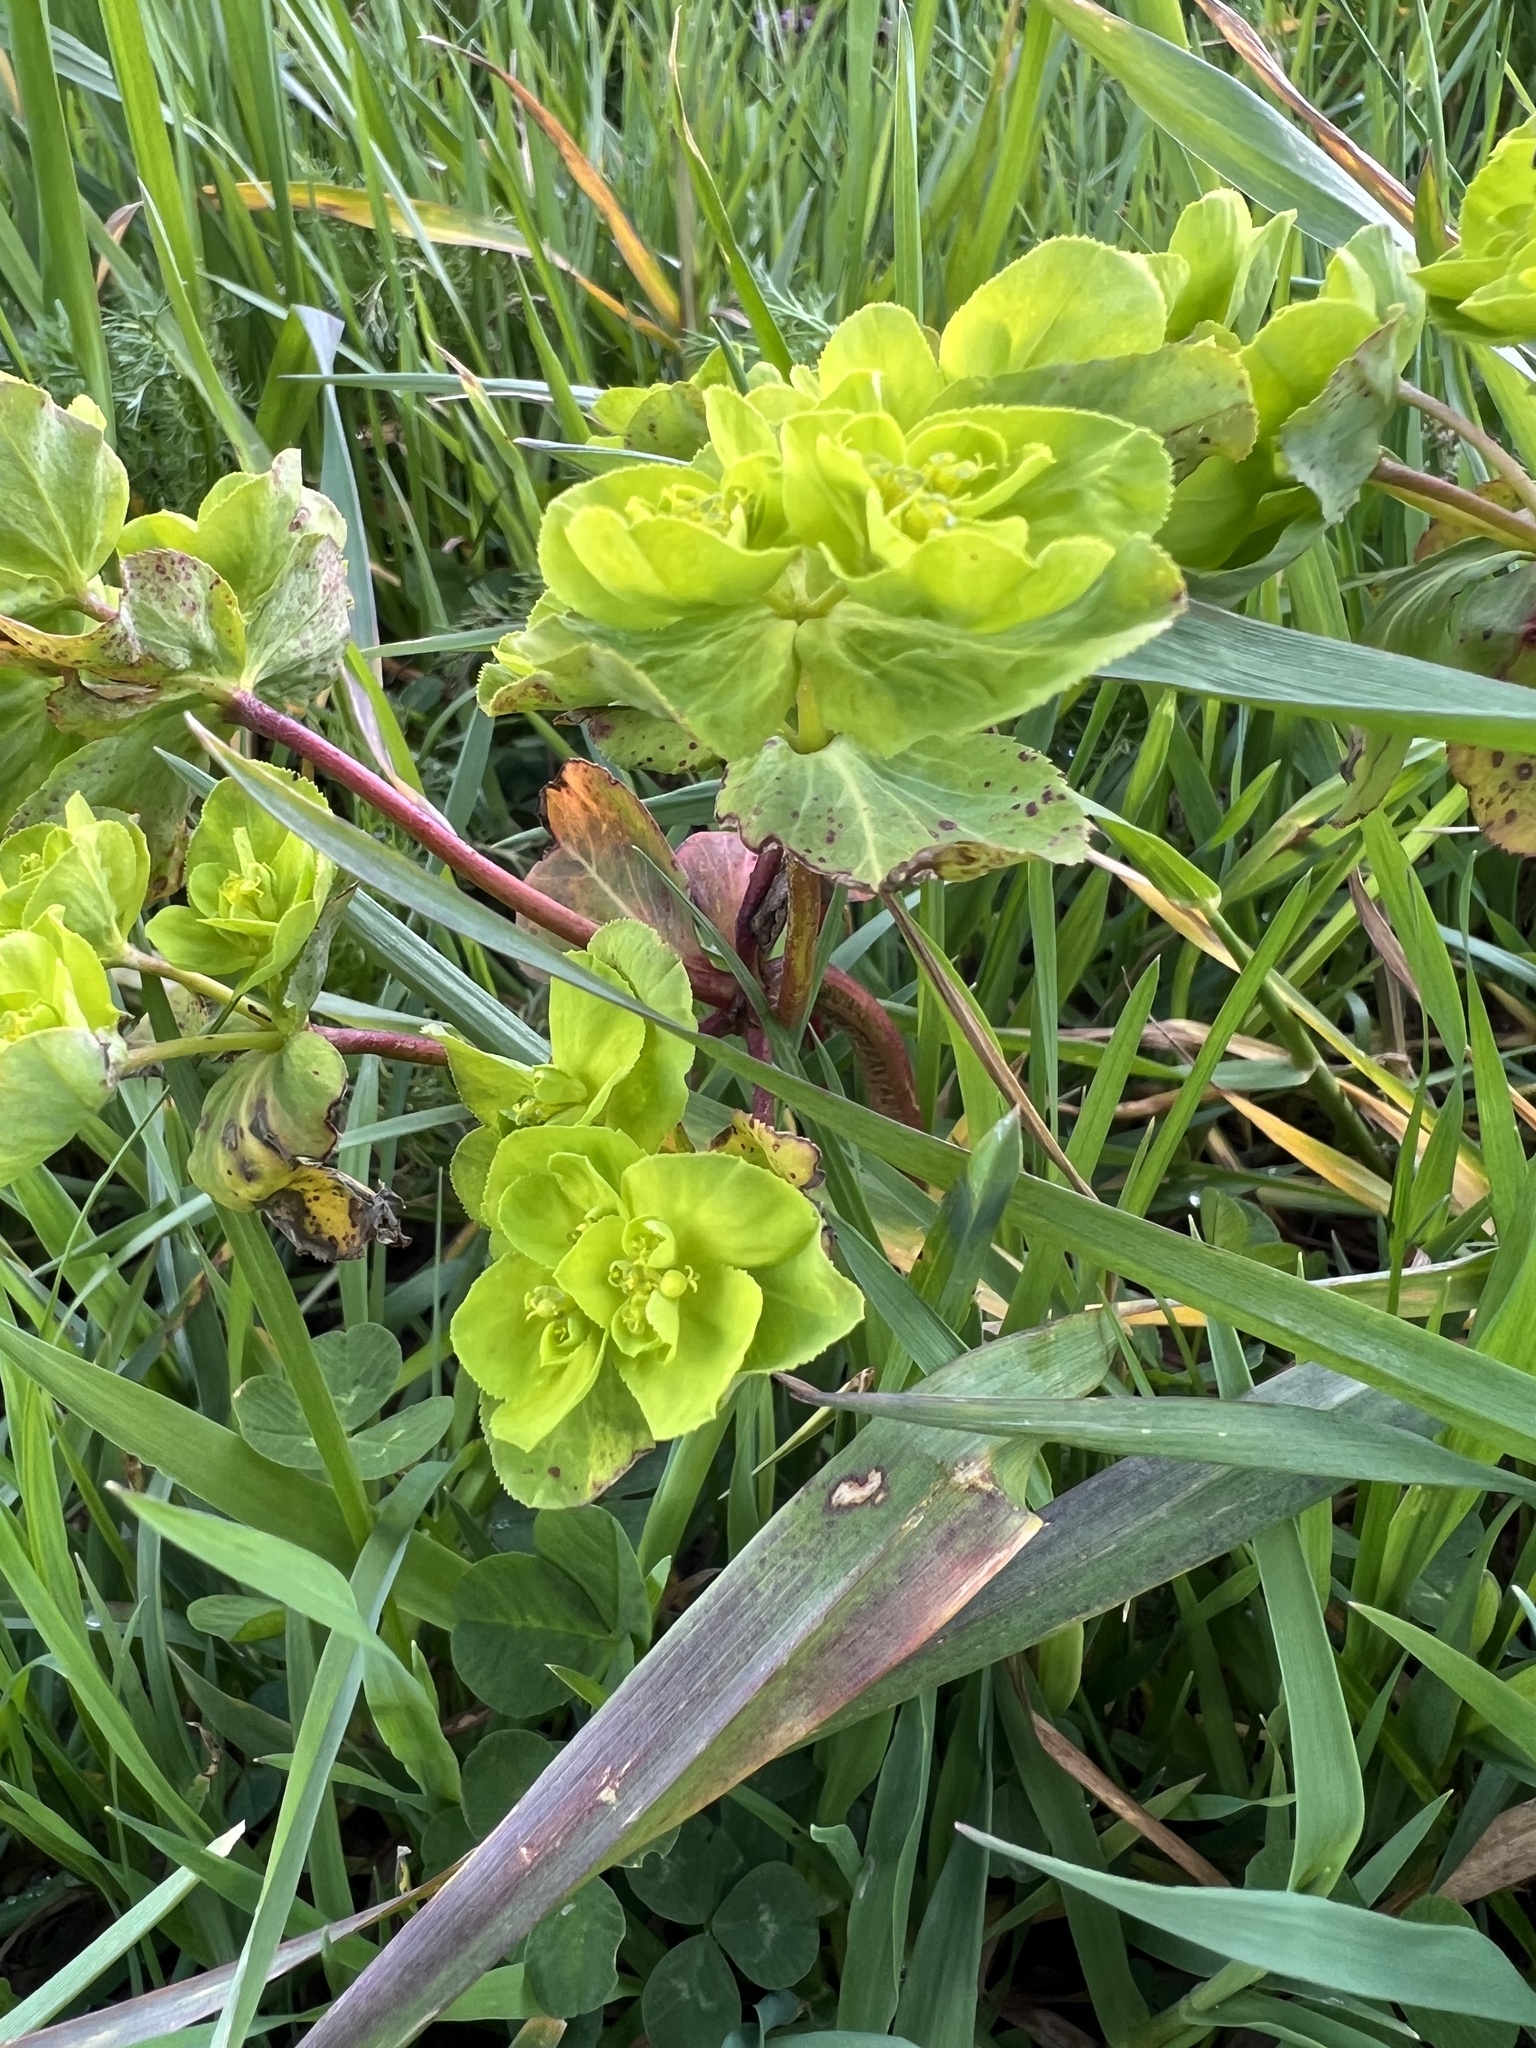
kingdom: Plantae
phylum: Tracheophyta
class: Magnoliopsida
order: Malpighiales
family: Euphorbiaceae
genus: Euphorbia
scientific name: Euphorbia helioscopia
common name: Sun spurge
